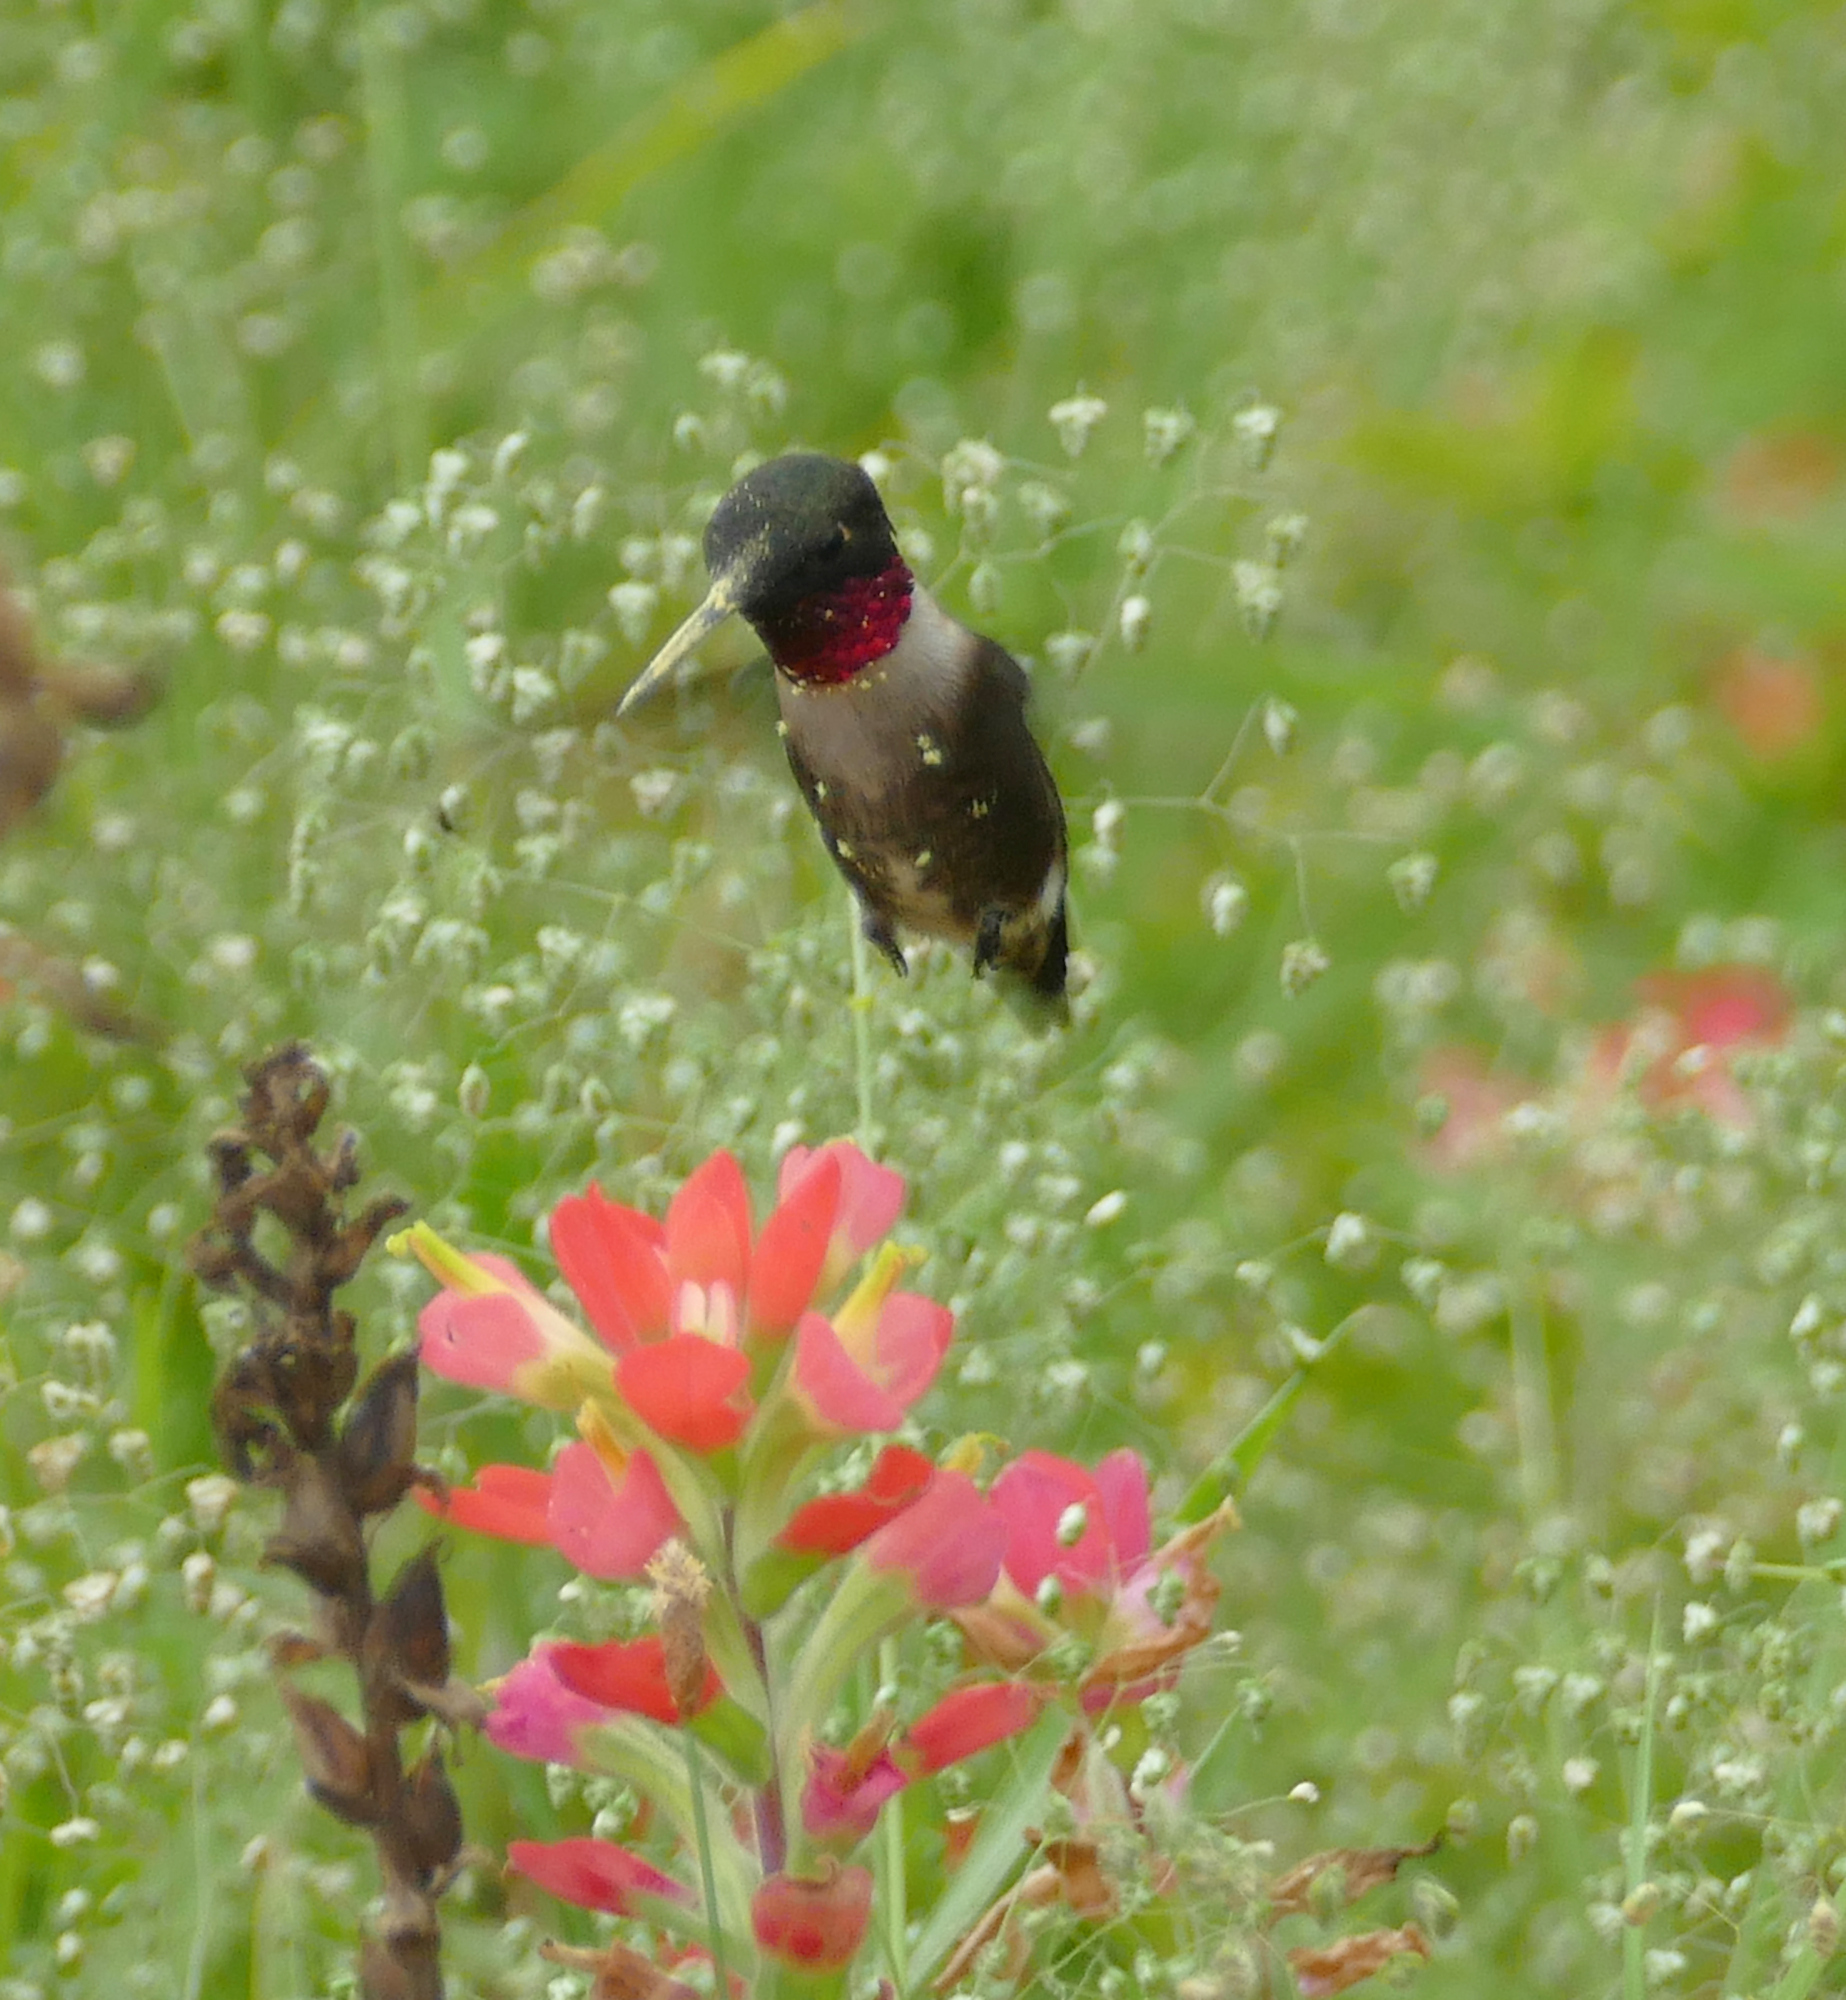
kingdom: Animalia
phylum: Chordata
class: Aves
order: Apodiformes
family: Trochilidae
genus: Archilochus
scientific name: Archilochus colubris
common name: Ruby-throated hummingbird
